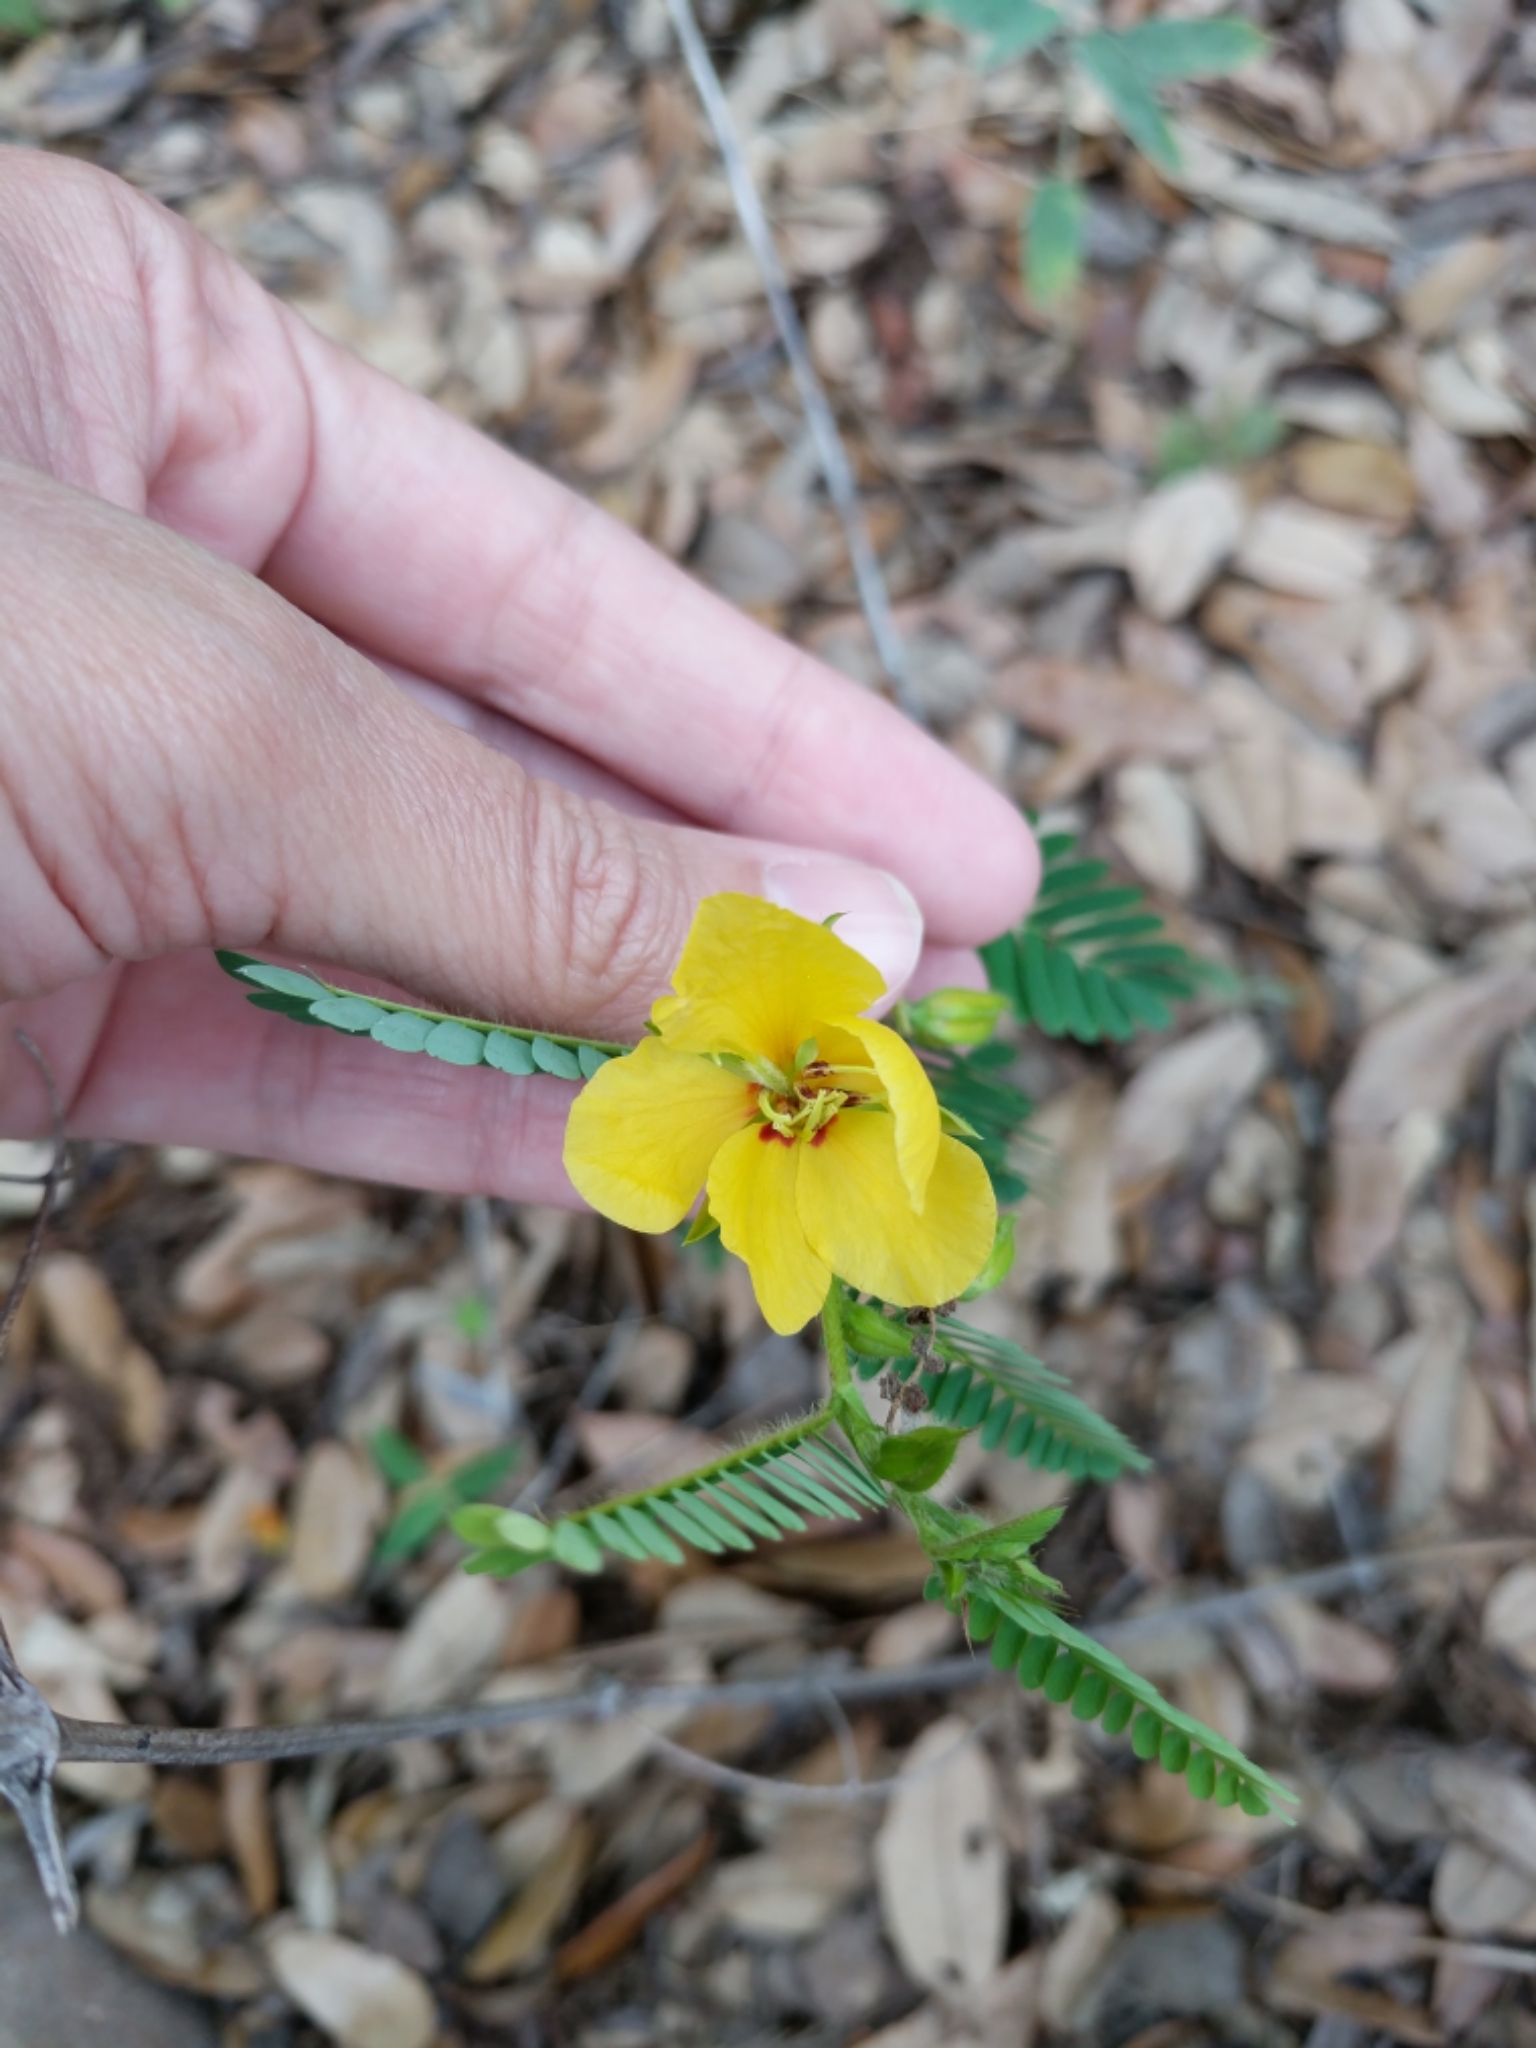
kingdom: Plantae
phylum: Tracheophyta
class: Magnoliopsida
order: Fabales
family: Fabaceae
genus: Chamaecrista
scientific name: Chamaecrista fasciculata
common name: Golden cassia
